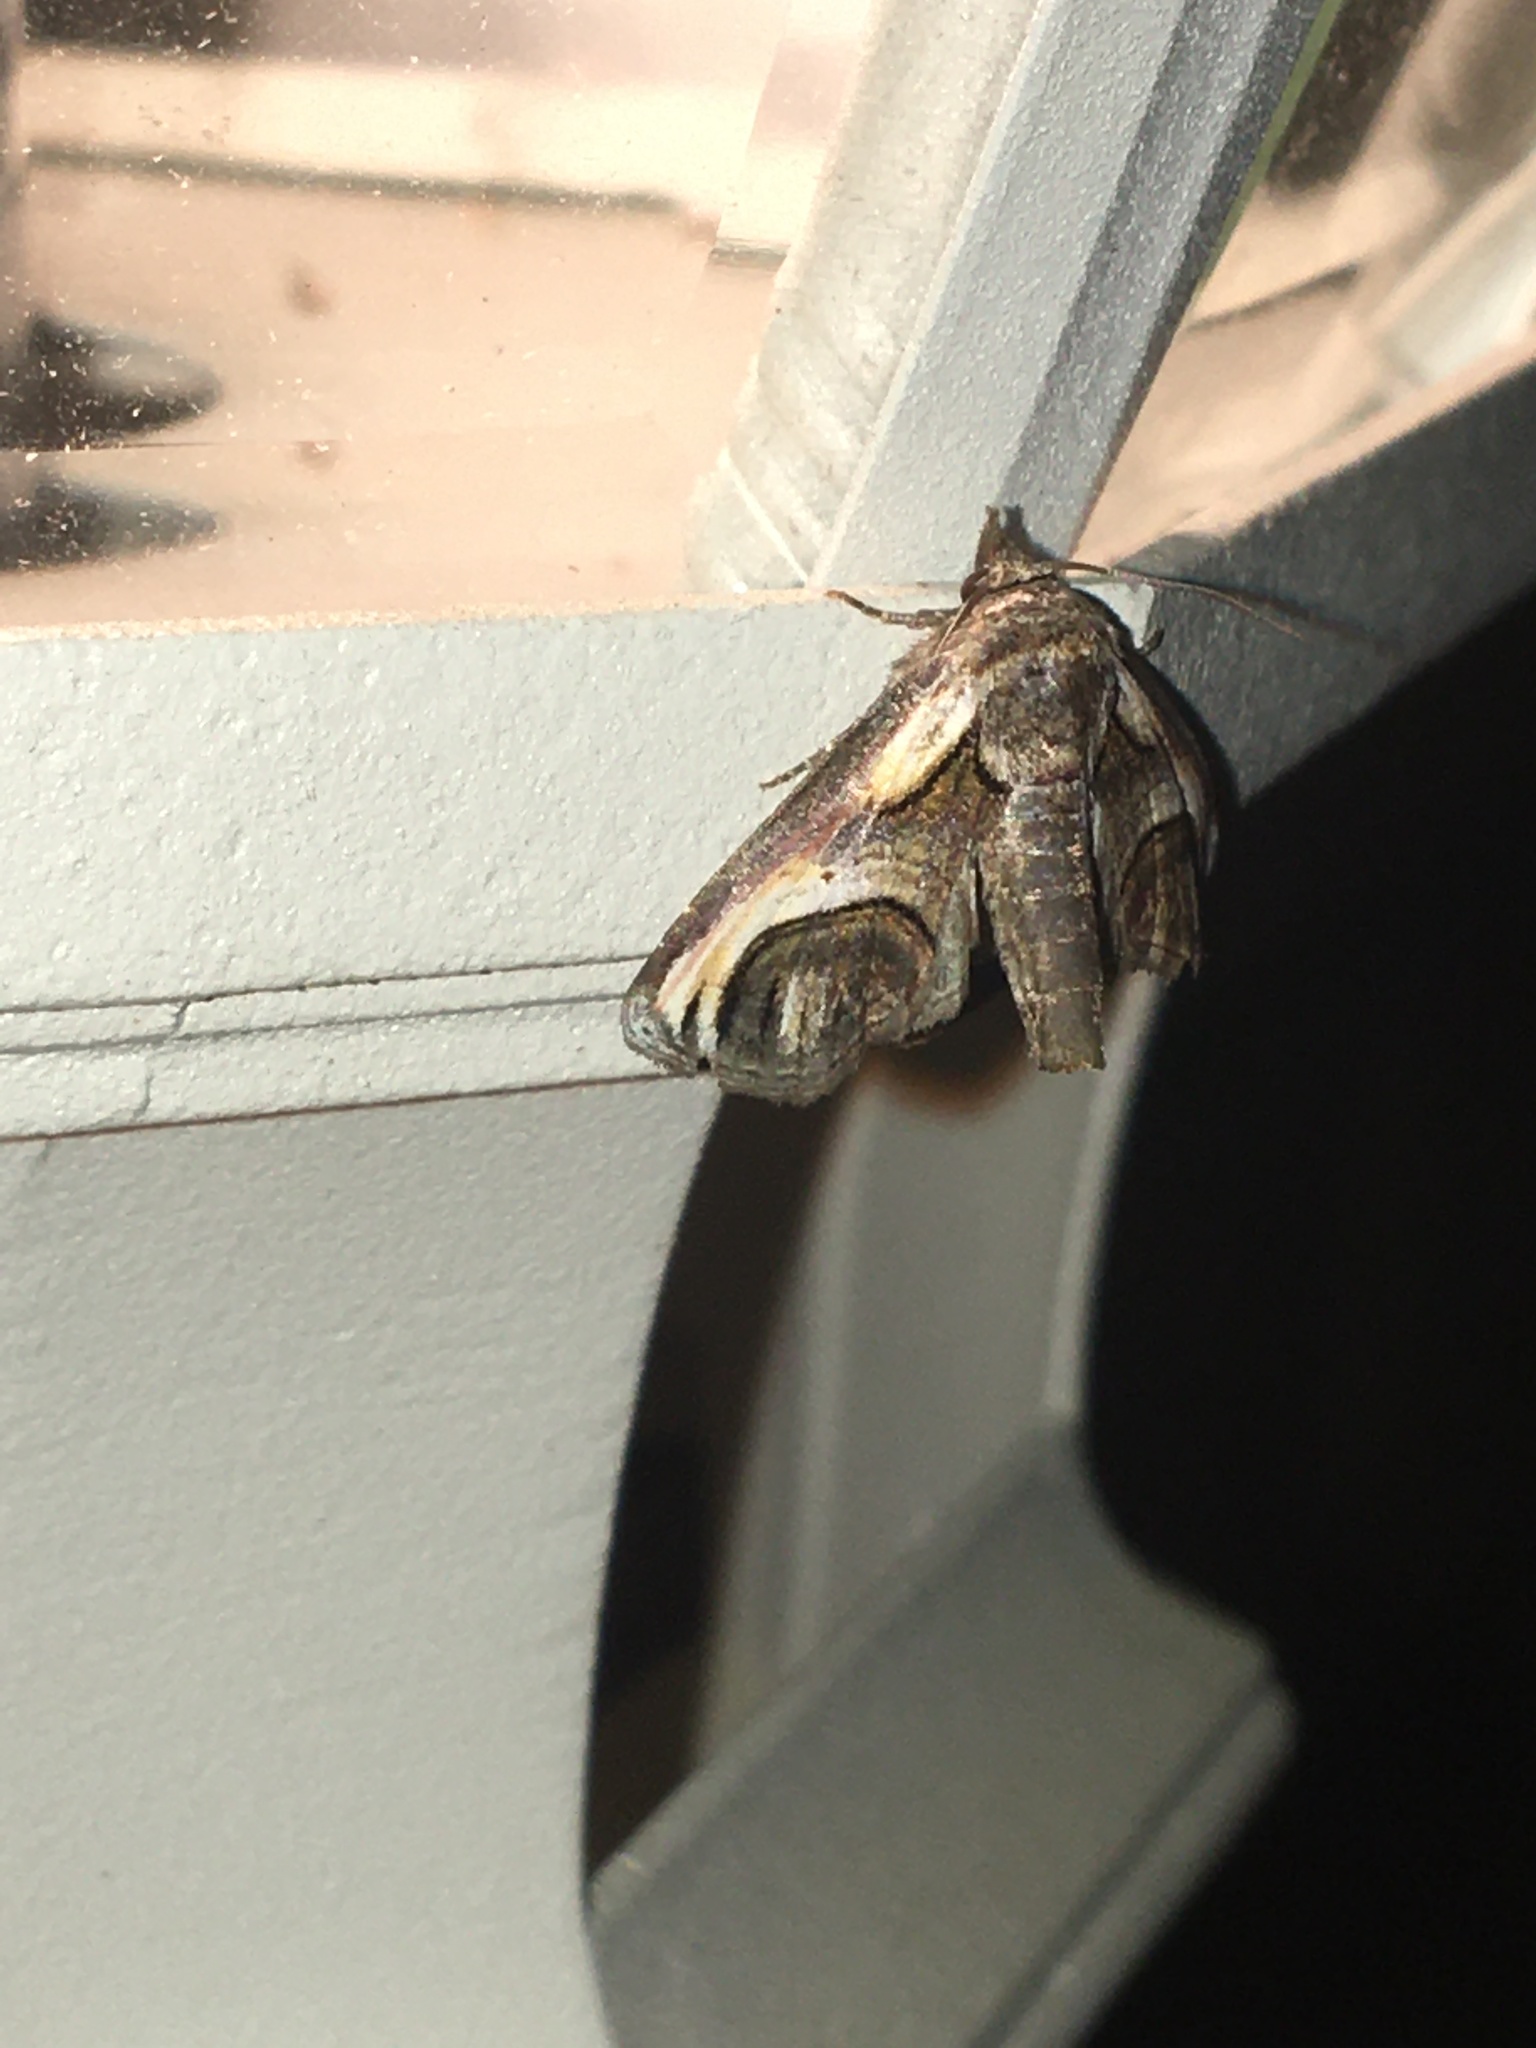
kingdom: Animalia
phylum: Arthropoda
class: Insecta
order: Lepidoptera
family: Euteliidae
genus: Paectes
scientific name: Paectes oculatrix
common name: Eyed paectes moth
